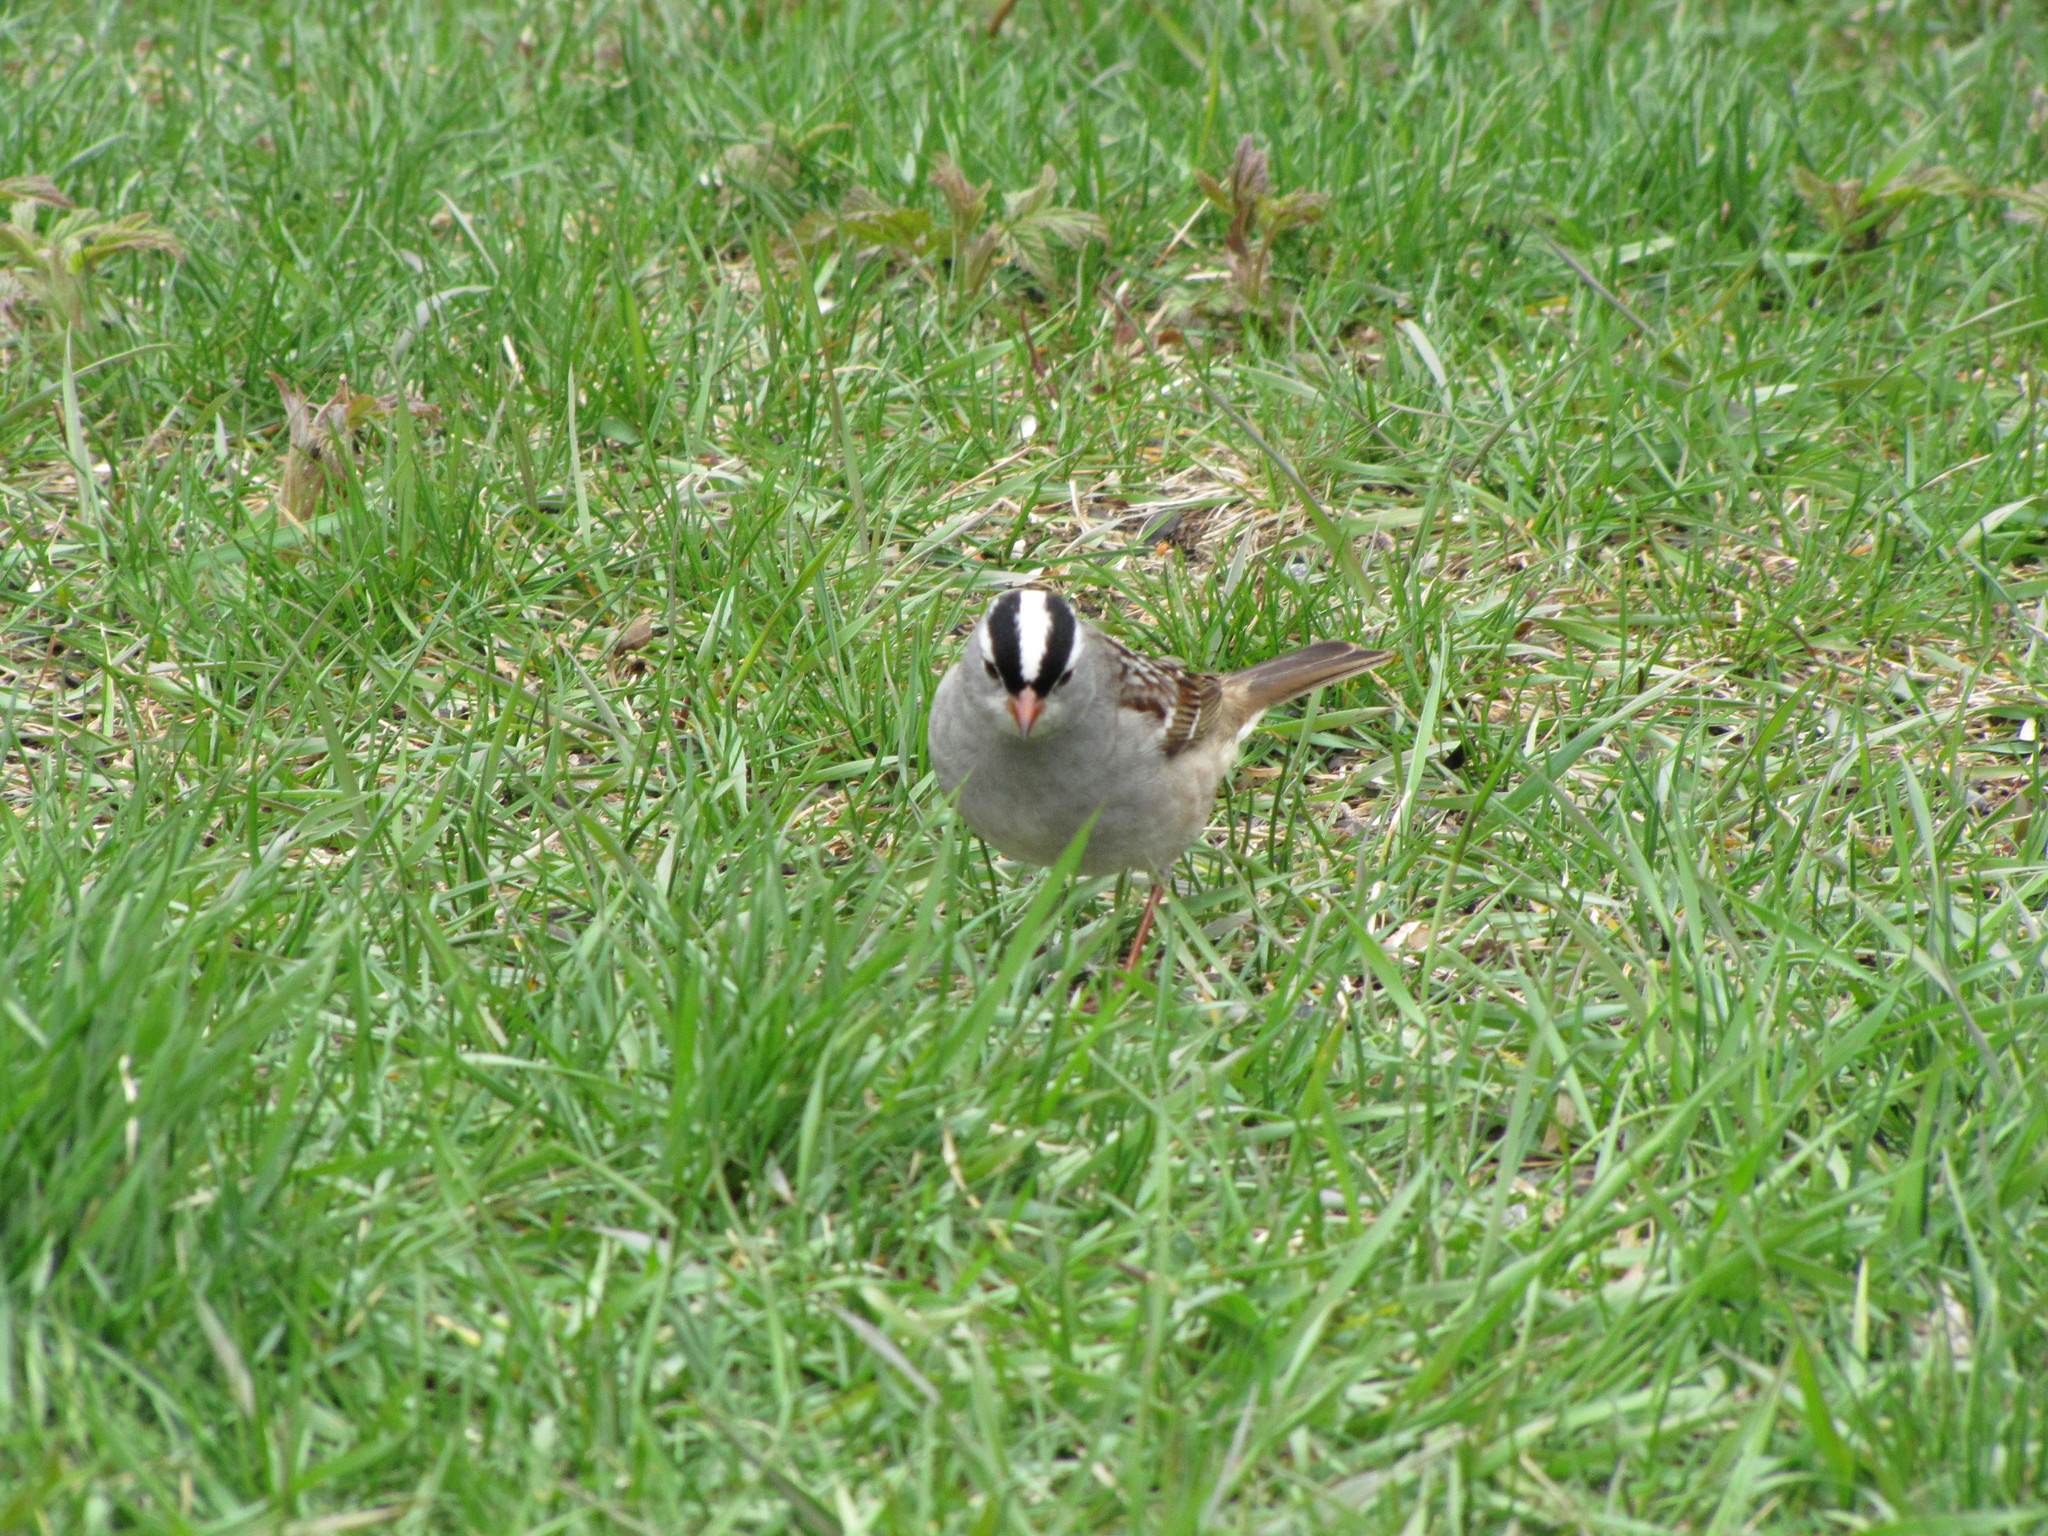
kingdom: Animalia
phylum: Chordata
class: Aves
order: Passeriformes
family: Passerellidae
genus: Zonotrichia
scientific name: Zonotrichia leucophrys
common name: White-crowned sparrow
